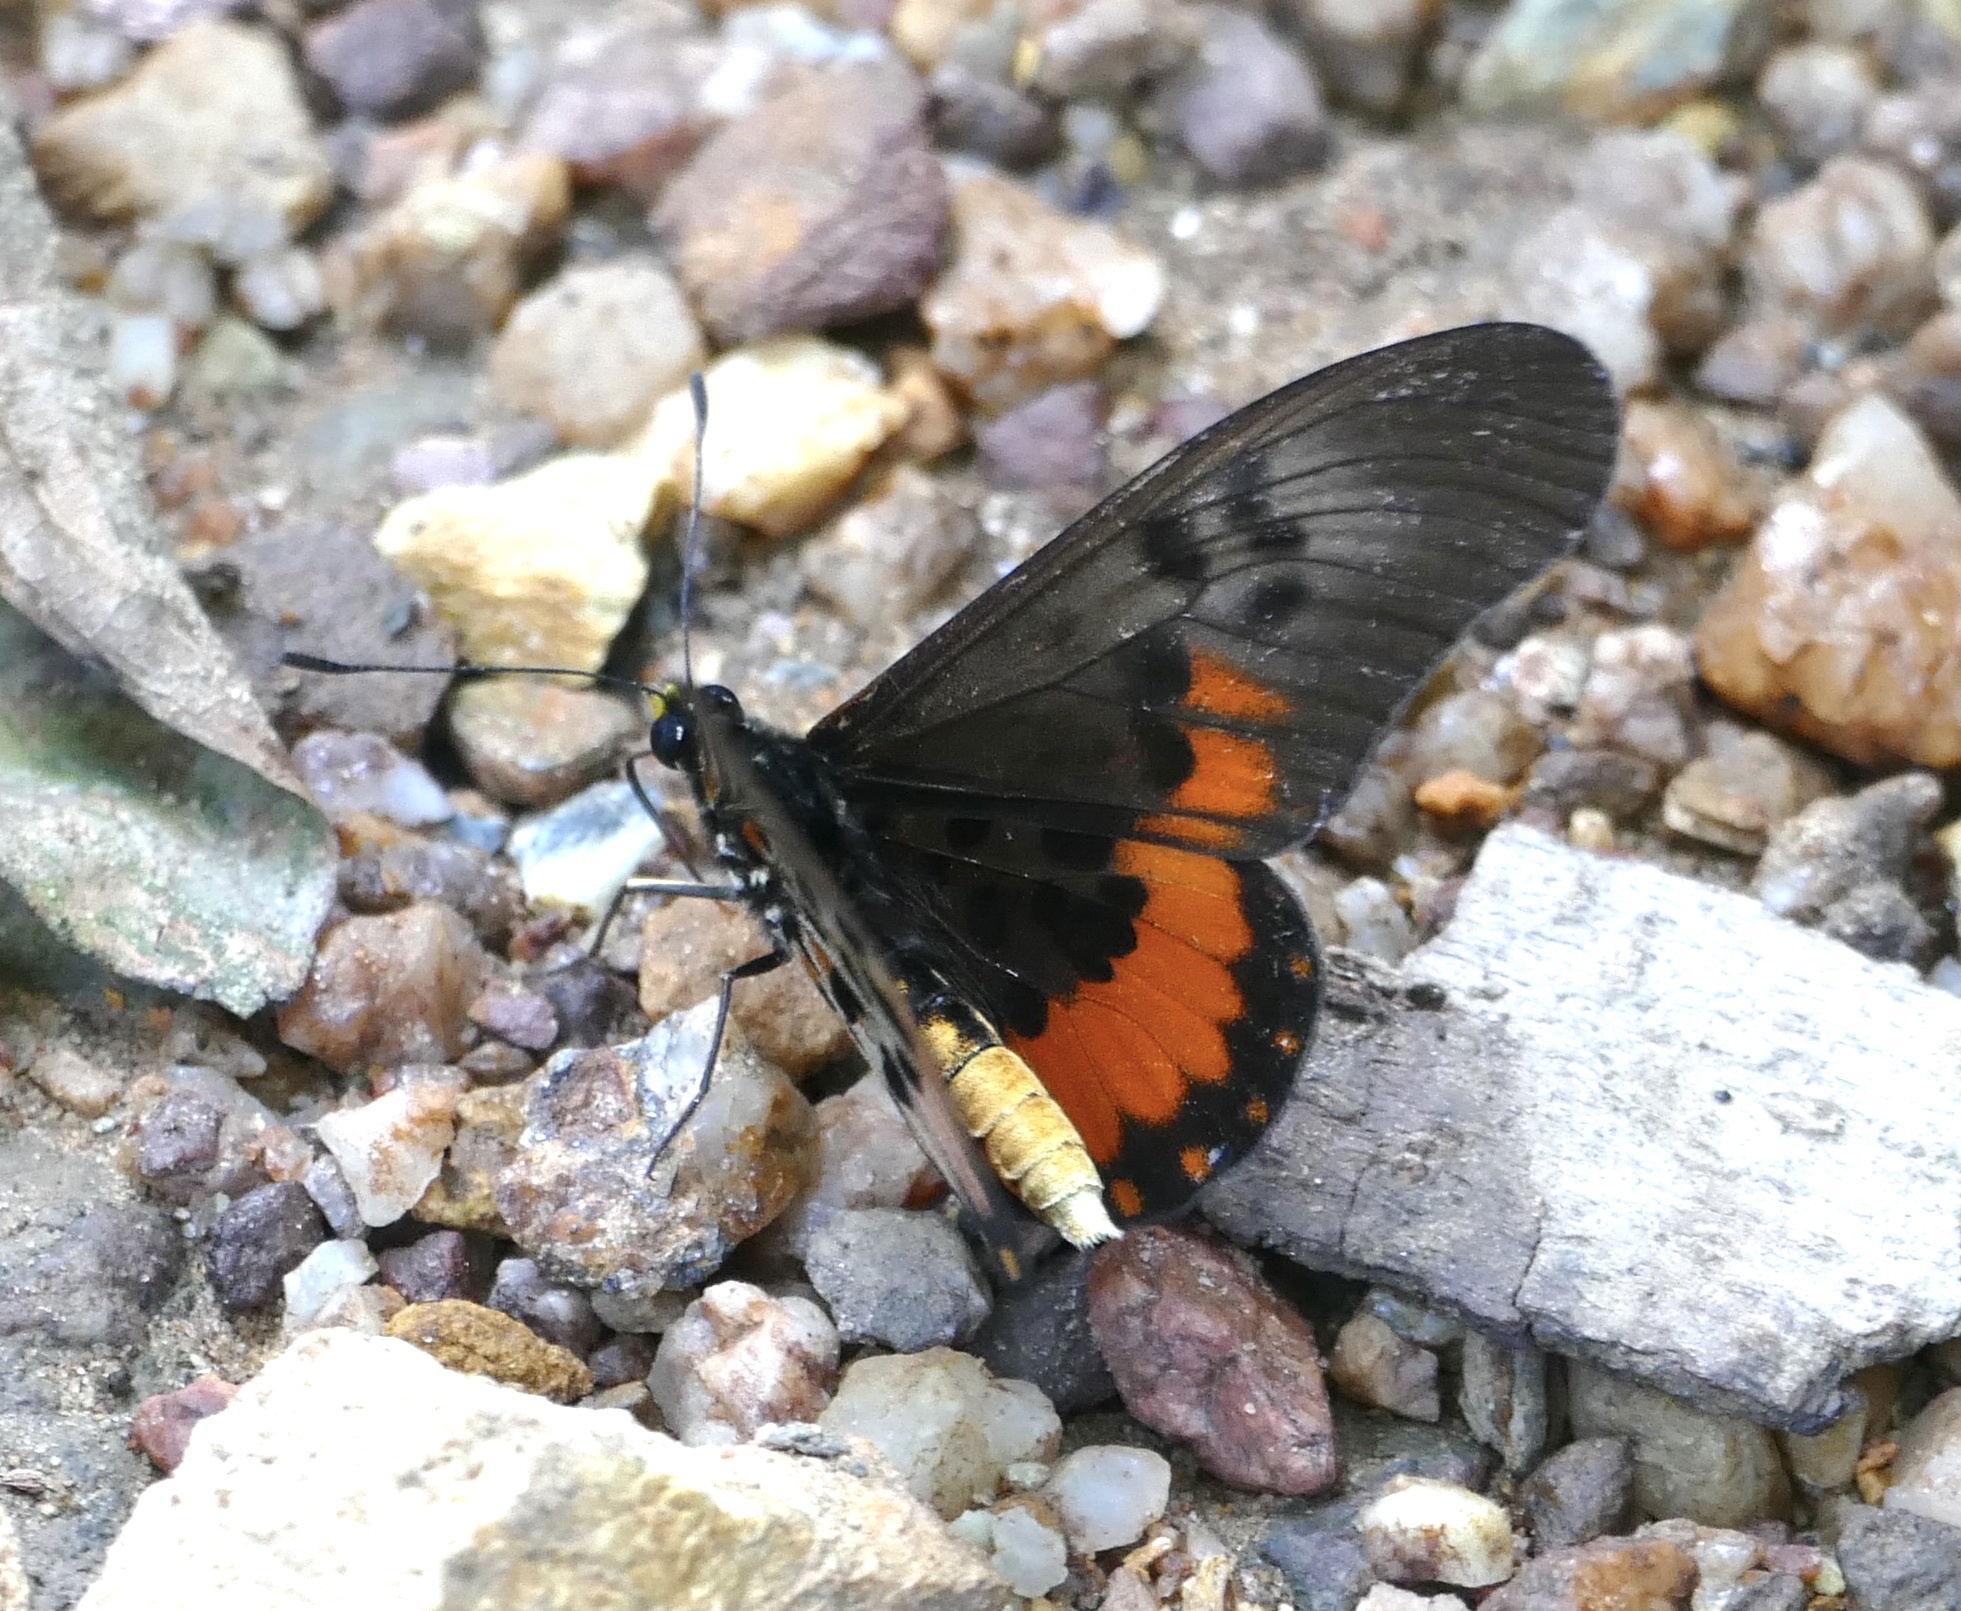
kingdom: Animalia
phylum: Arthropoda
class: Insecta
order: Lepidoptera
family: Nymphalidae
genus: Acraea
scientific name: Acraea
